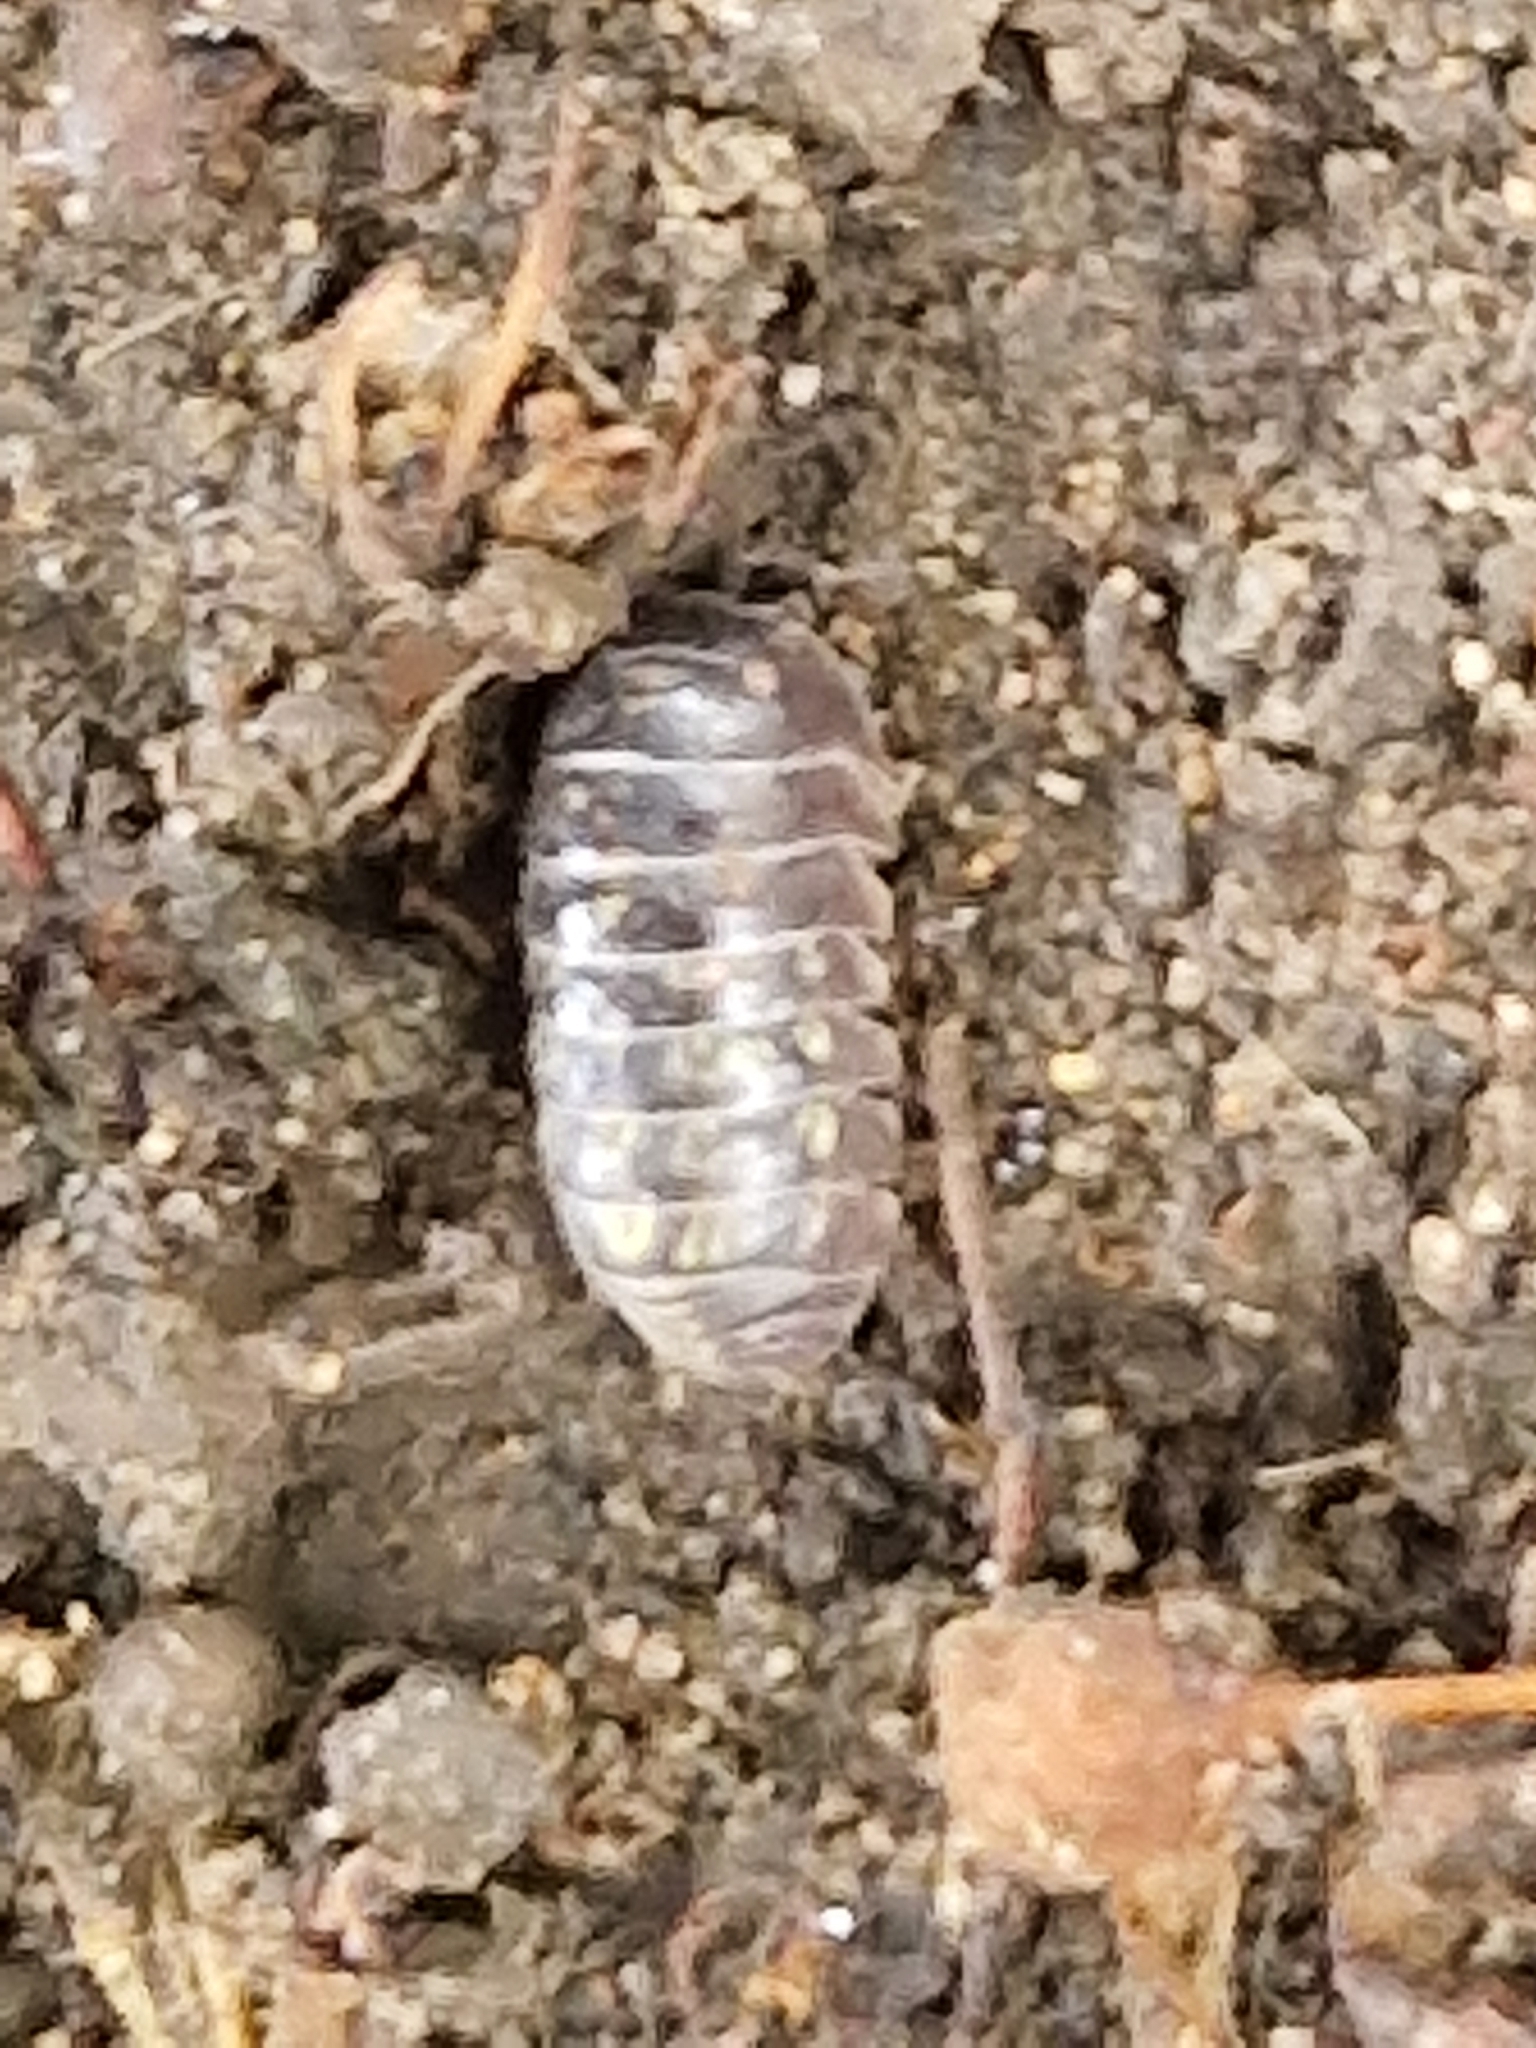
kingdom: Animalia
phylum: Arthropoda
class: Malacostraca
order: Isopoda
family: Armadillidiidae
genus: Armadillidium
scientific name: Armadillidium vulgare
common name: Common pill woodlouse
